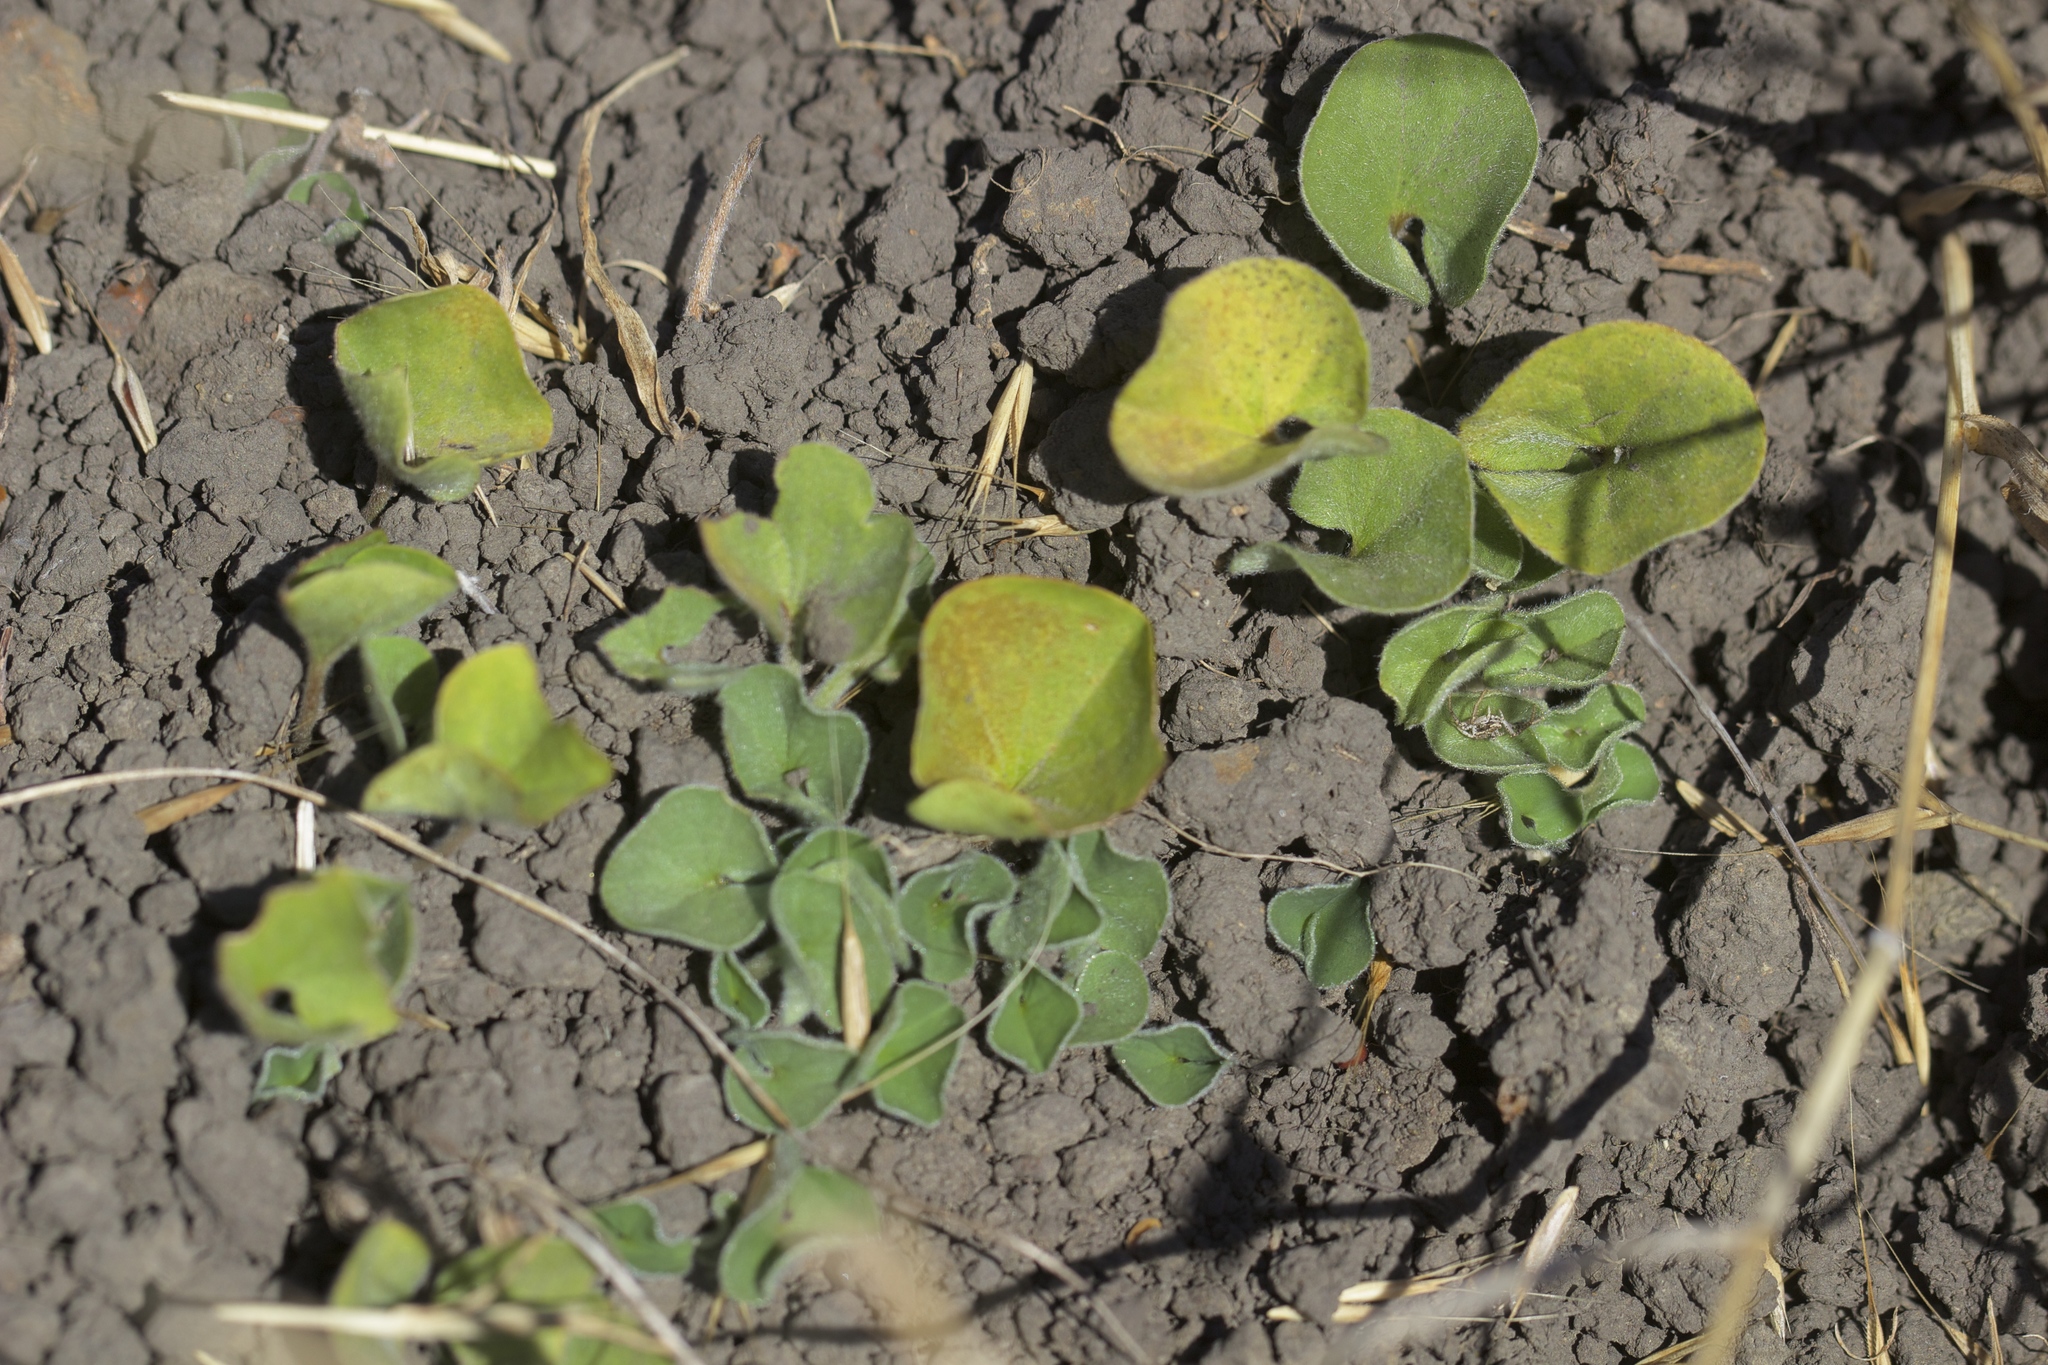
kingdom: Plantae
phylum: Tracheophyta
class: Magnoliopsida
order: Solanales
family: Convolvulaceae
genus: Dichondra
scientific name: Dichondra donelliana
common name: California ponysfoot
